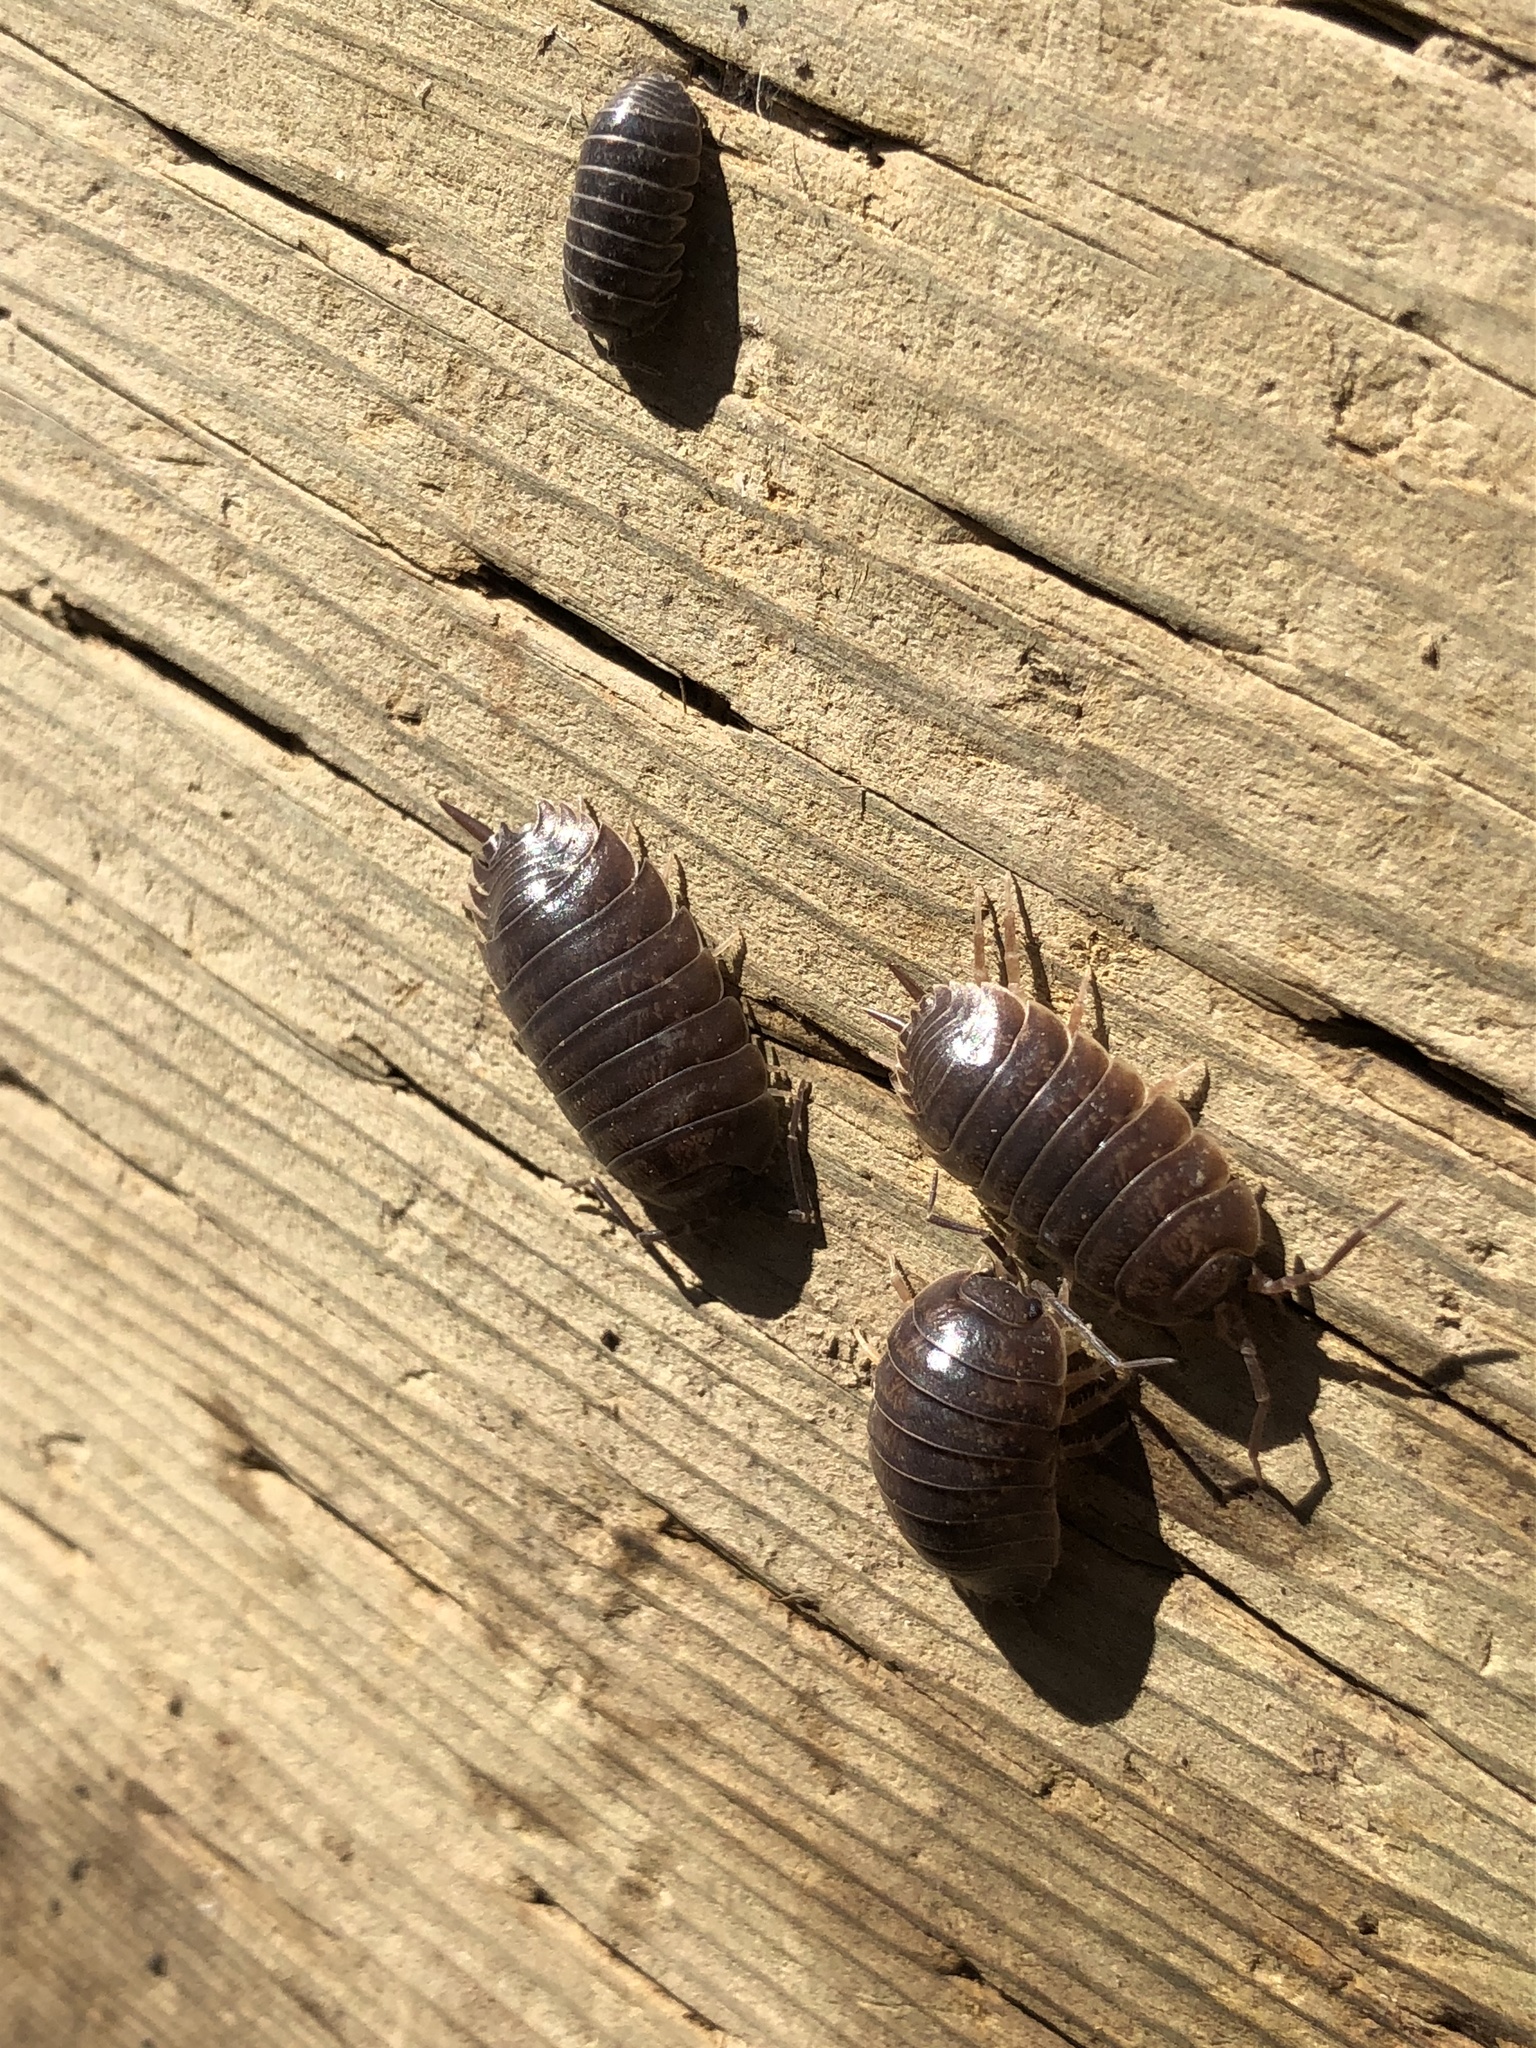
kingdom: Animalia
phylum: Arthropoda
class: Malacostraca
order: Isopoda
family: Porcellionidae
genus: Porcellio
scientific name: Porcellio laevis
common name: Swift woodlouse
